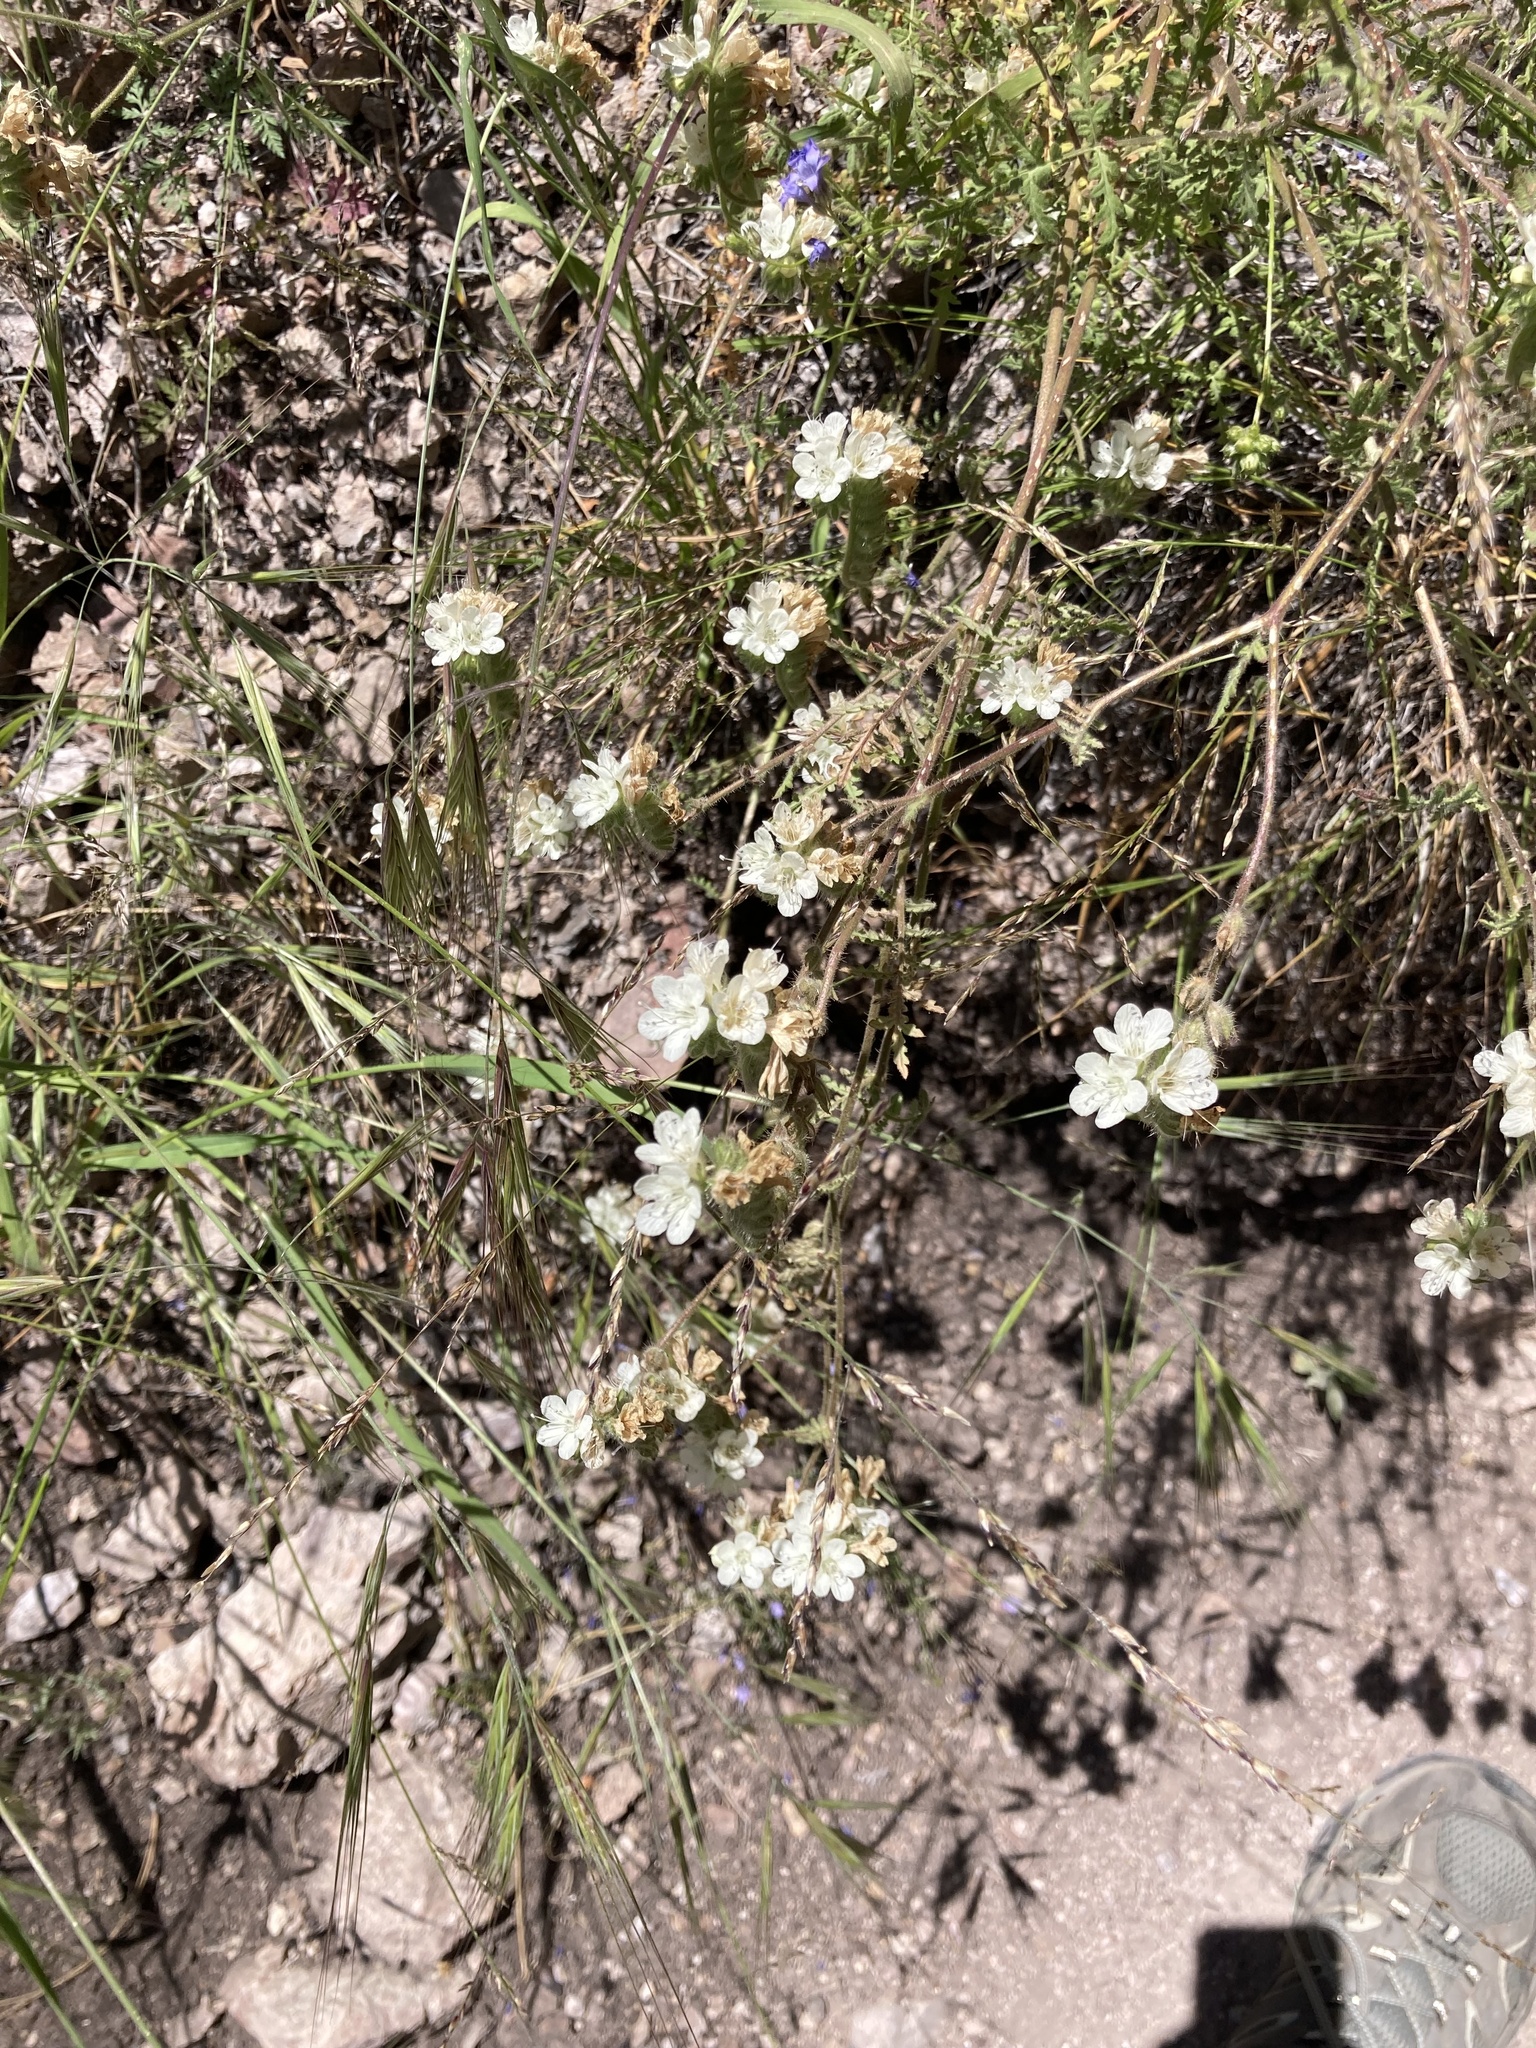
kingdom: Plantae
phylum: Tracheophyta
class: Magnoliopsida
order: Boraginales
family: Hydrophyllaceae
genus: Phacelia
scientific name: Phacelia distans
